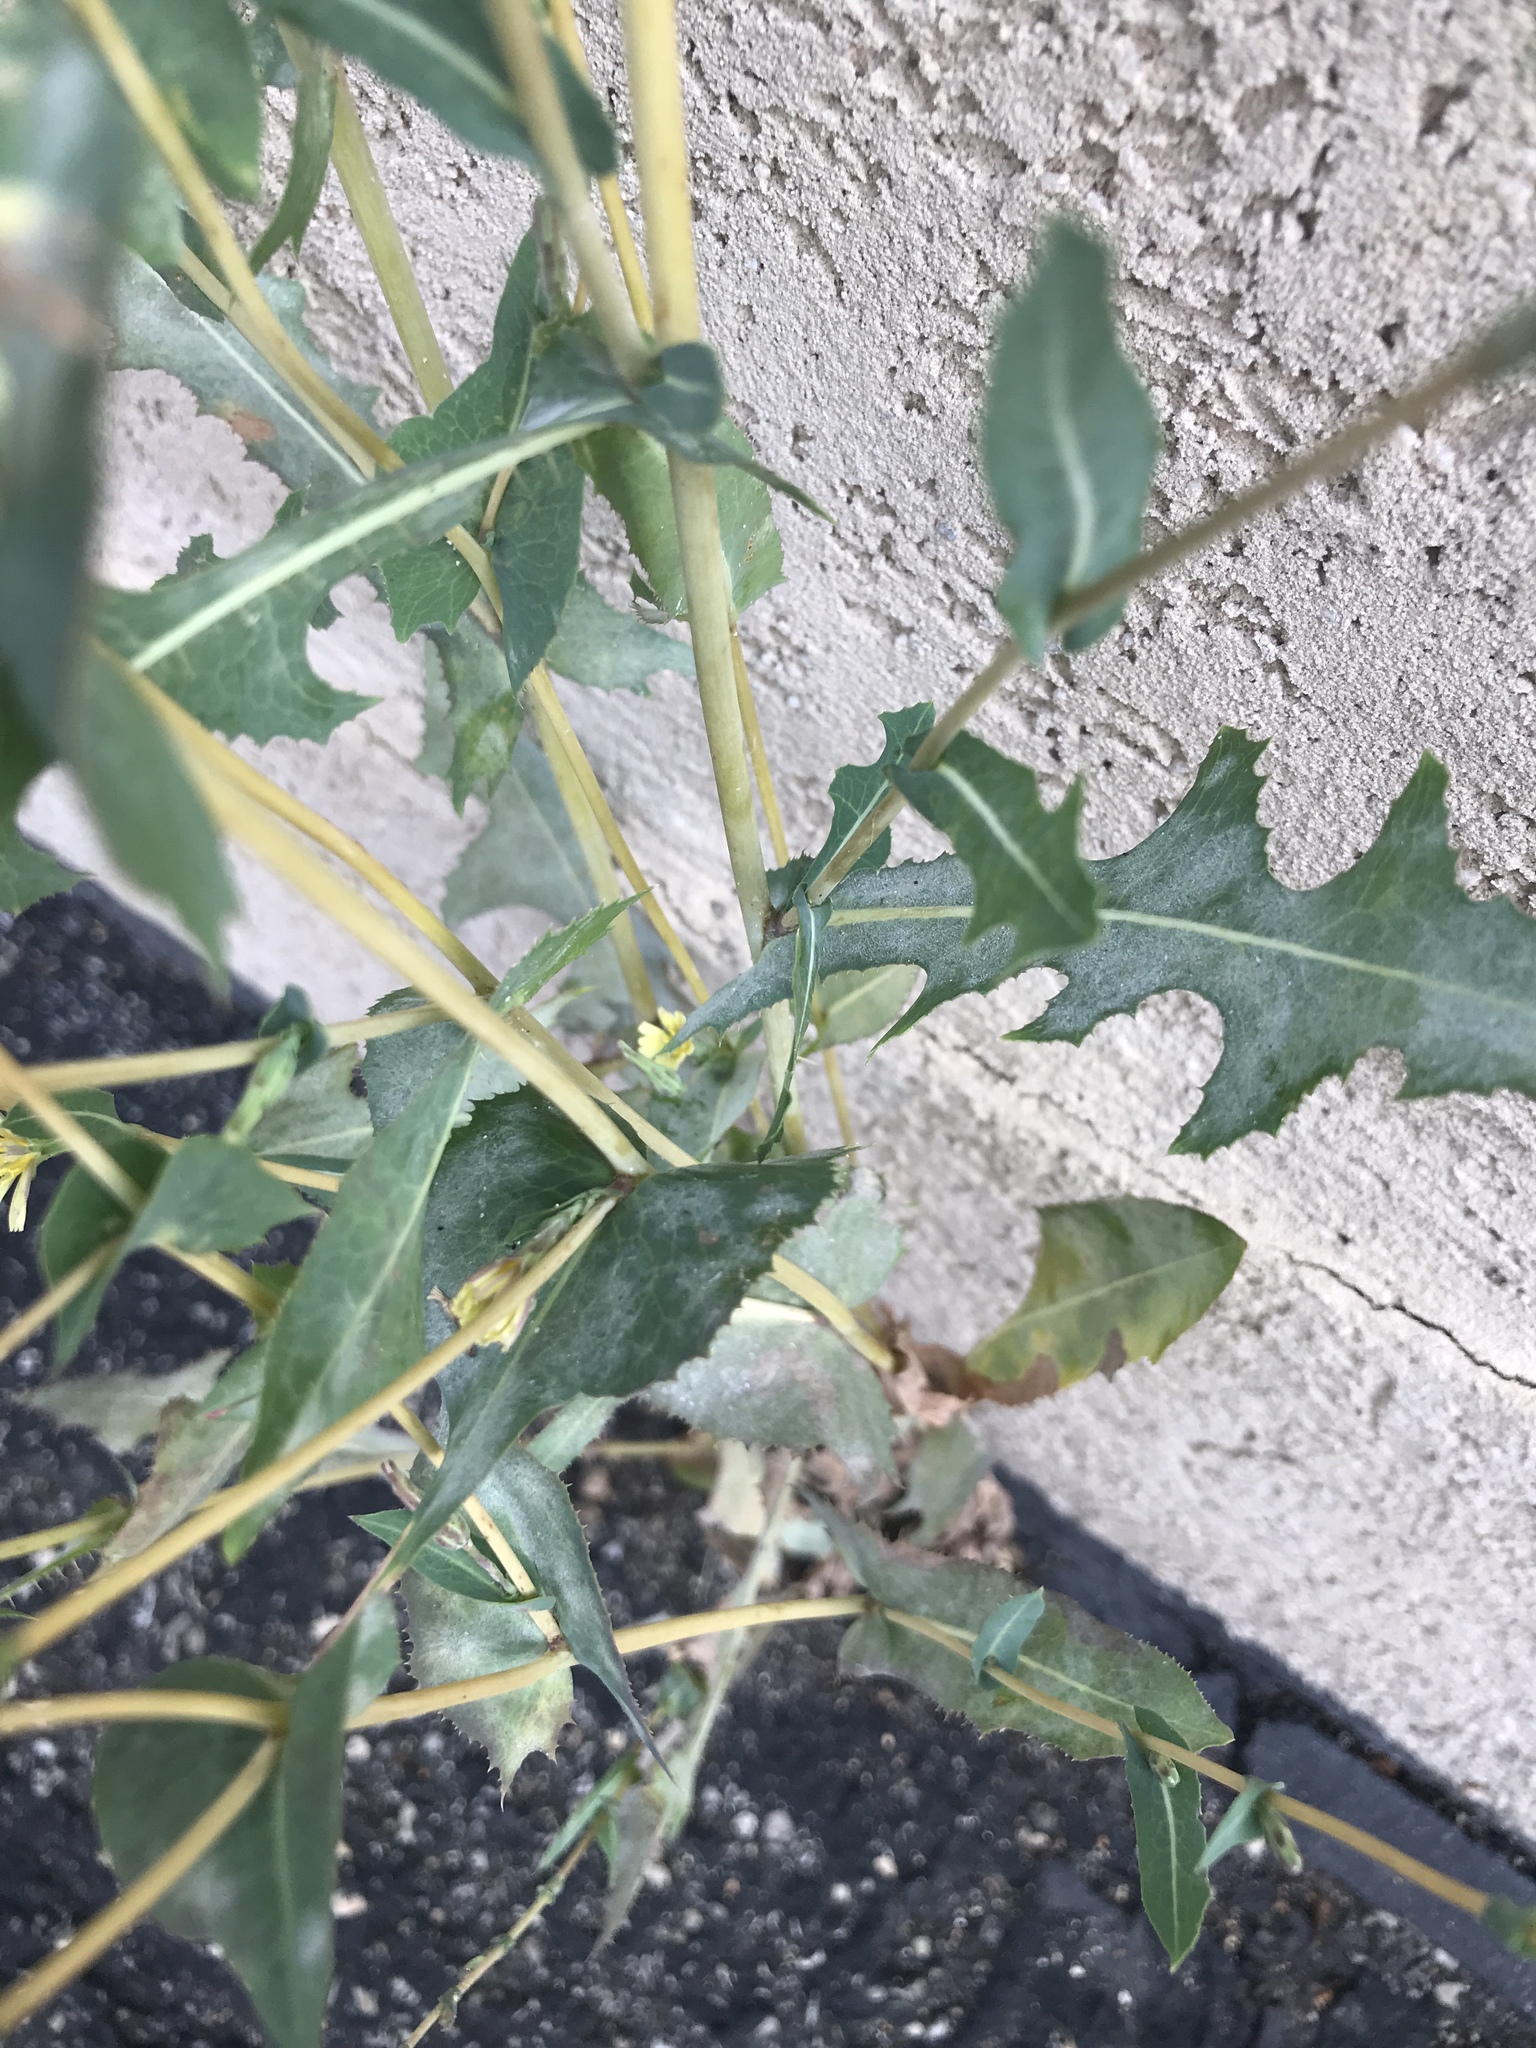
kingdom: Plantae
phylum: Tracheophyta
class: Magnoliopsida
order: Asterales
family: Asteraceae
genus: Lactuca
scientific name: Lactuca serriola
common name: Prickly lettuce
